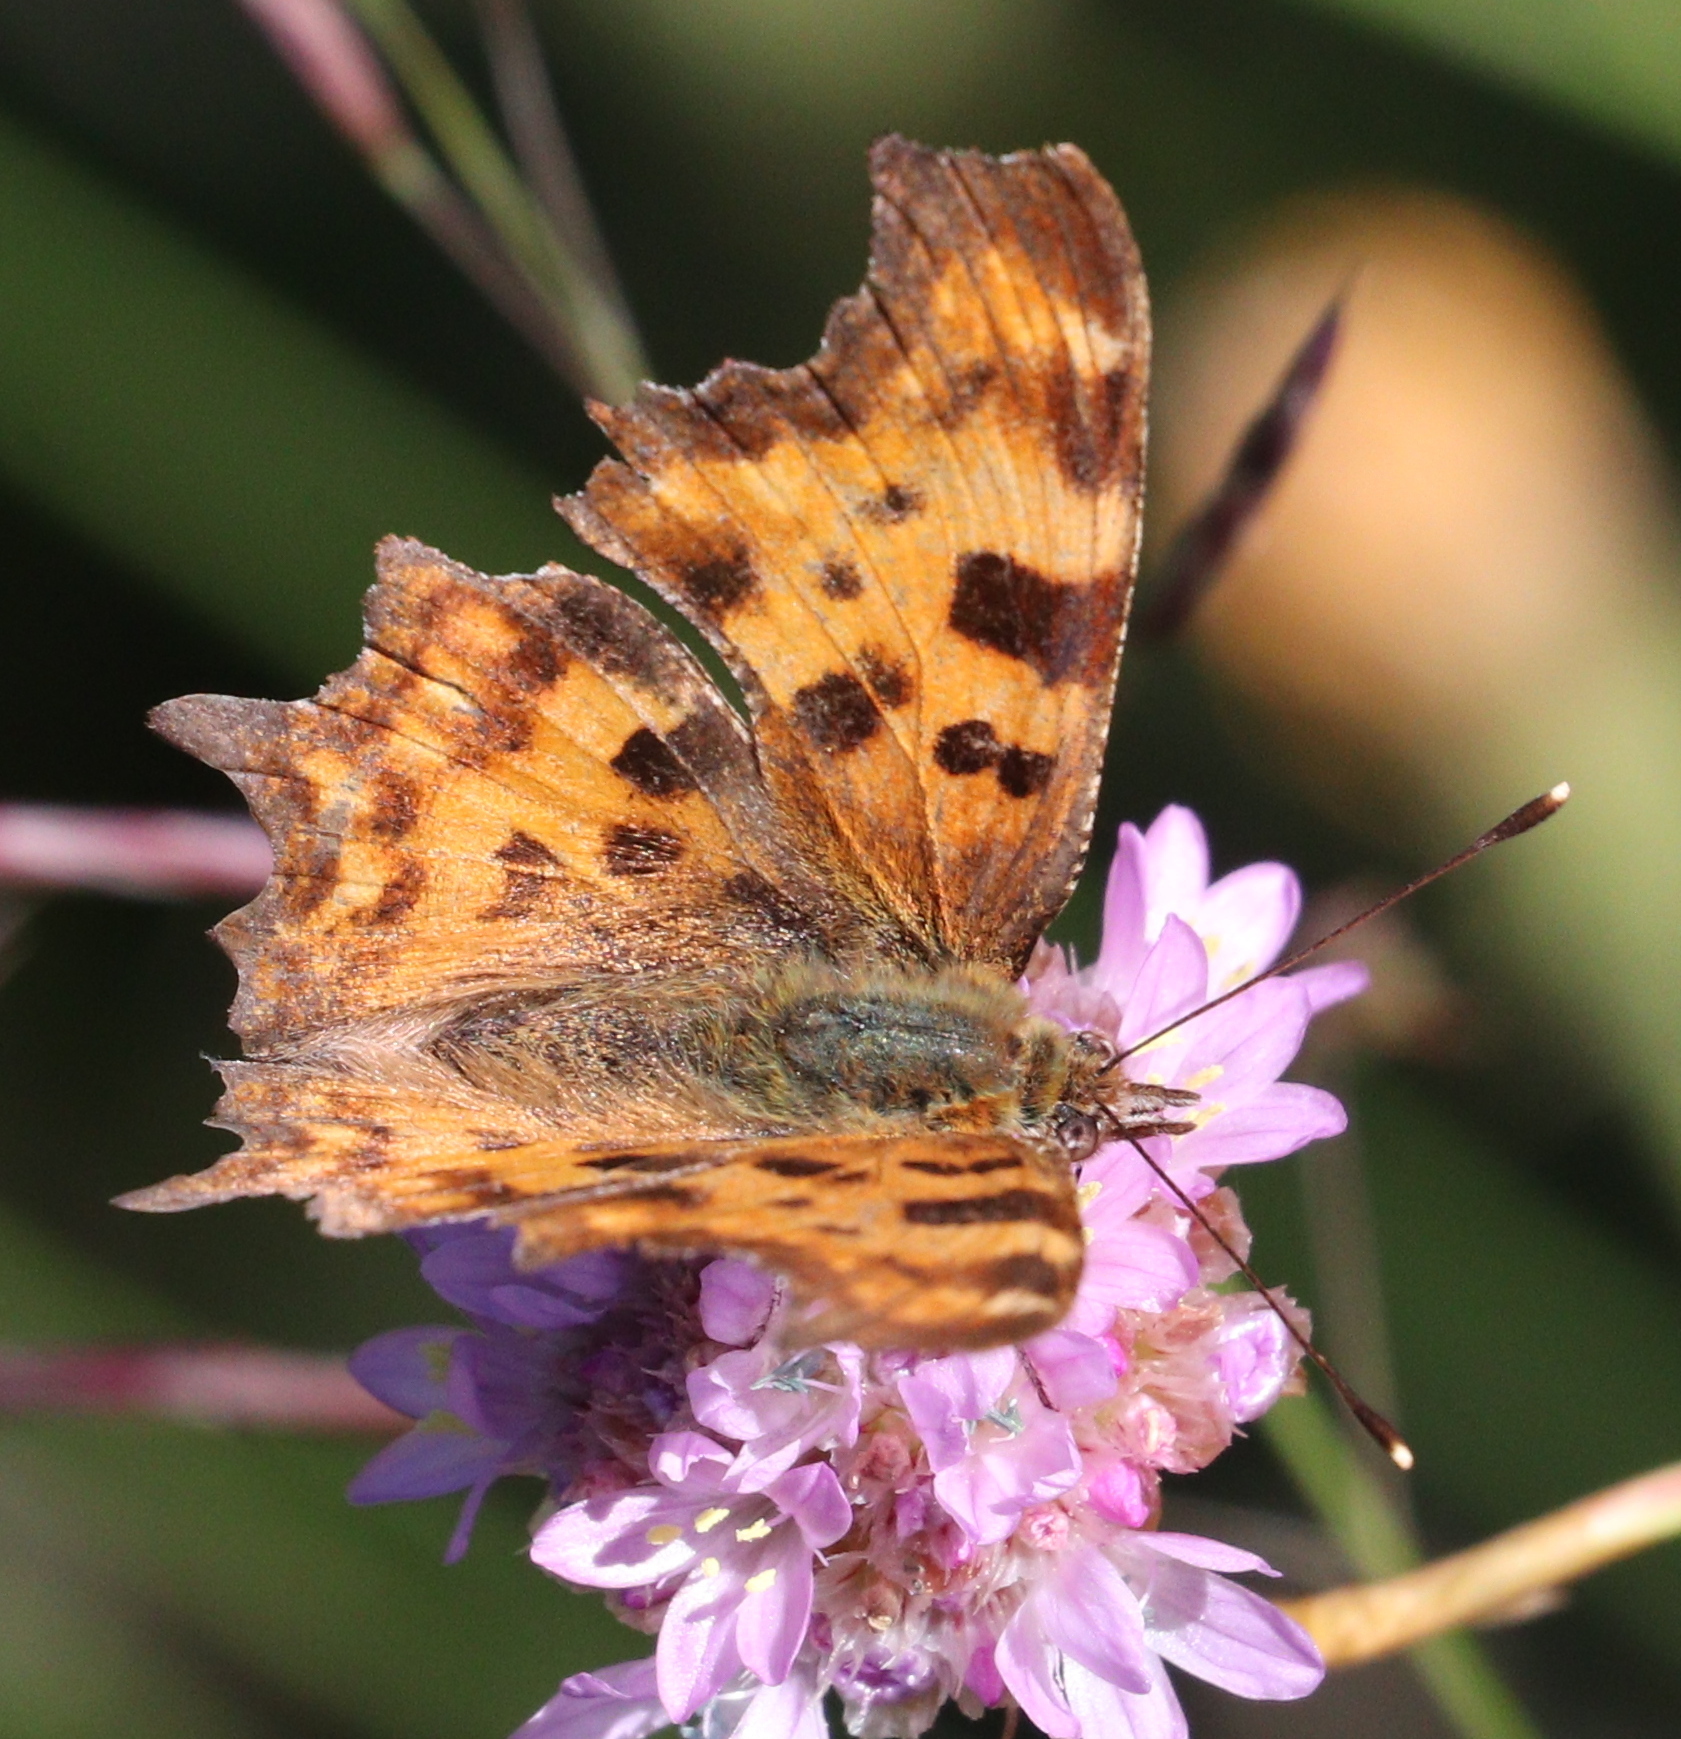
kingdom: Animalia
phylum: Arthropoda
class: Insecta
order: Lepidoptera
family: Nymphalidae
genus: Polygonia
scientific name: Polygonia c-album
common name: Comma
